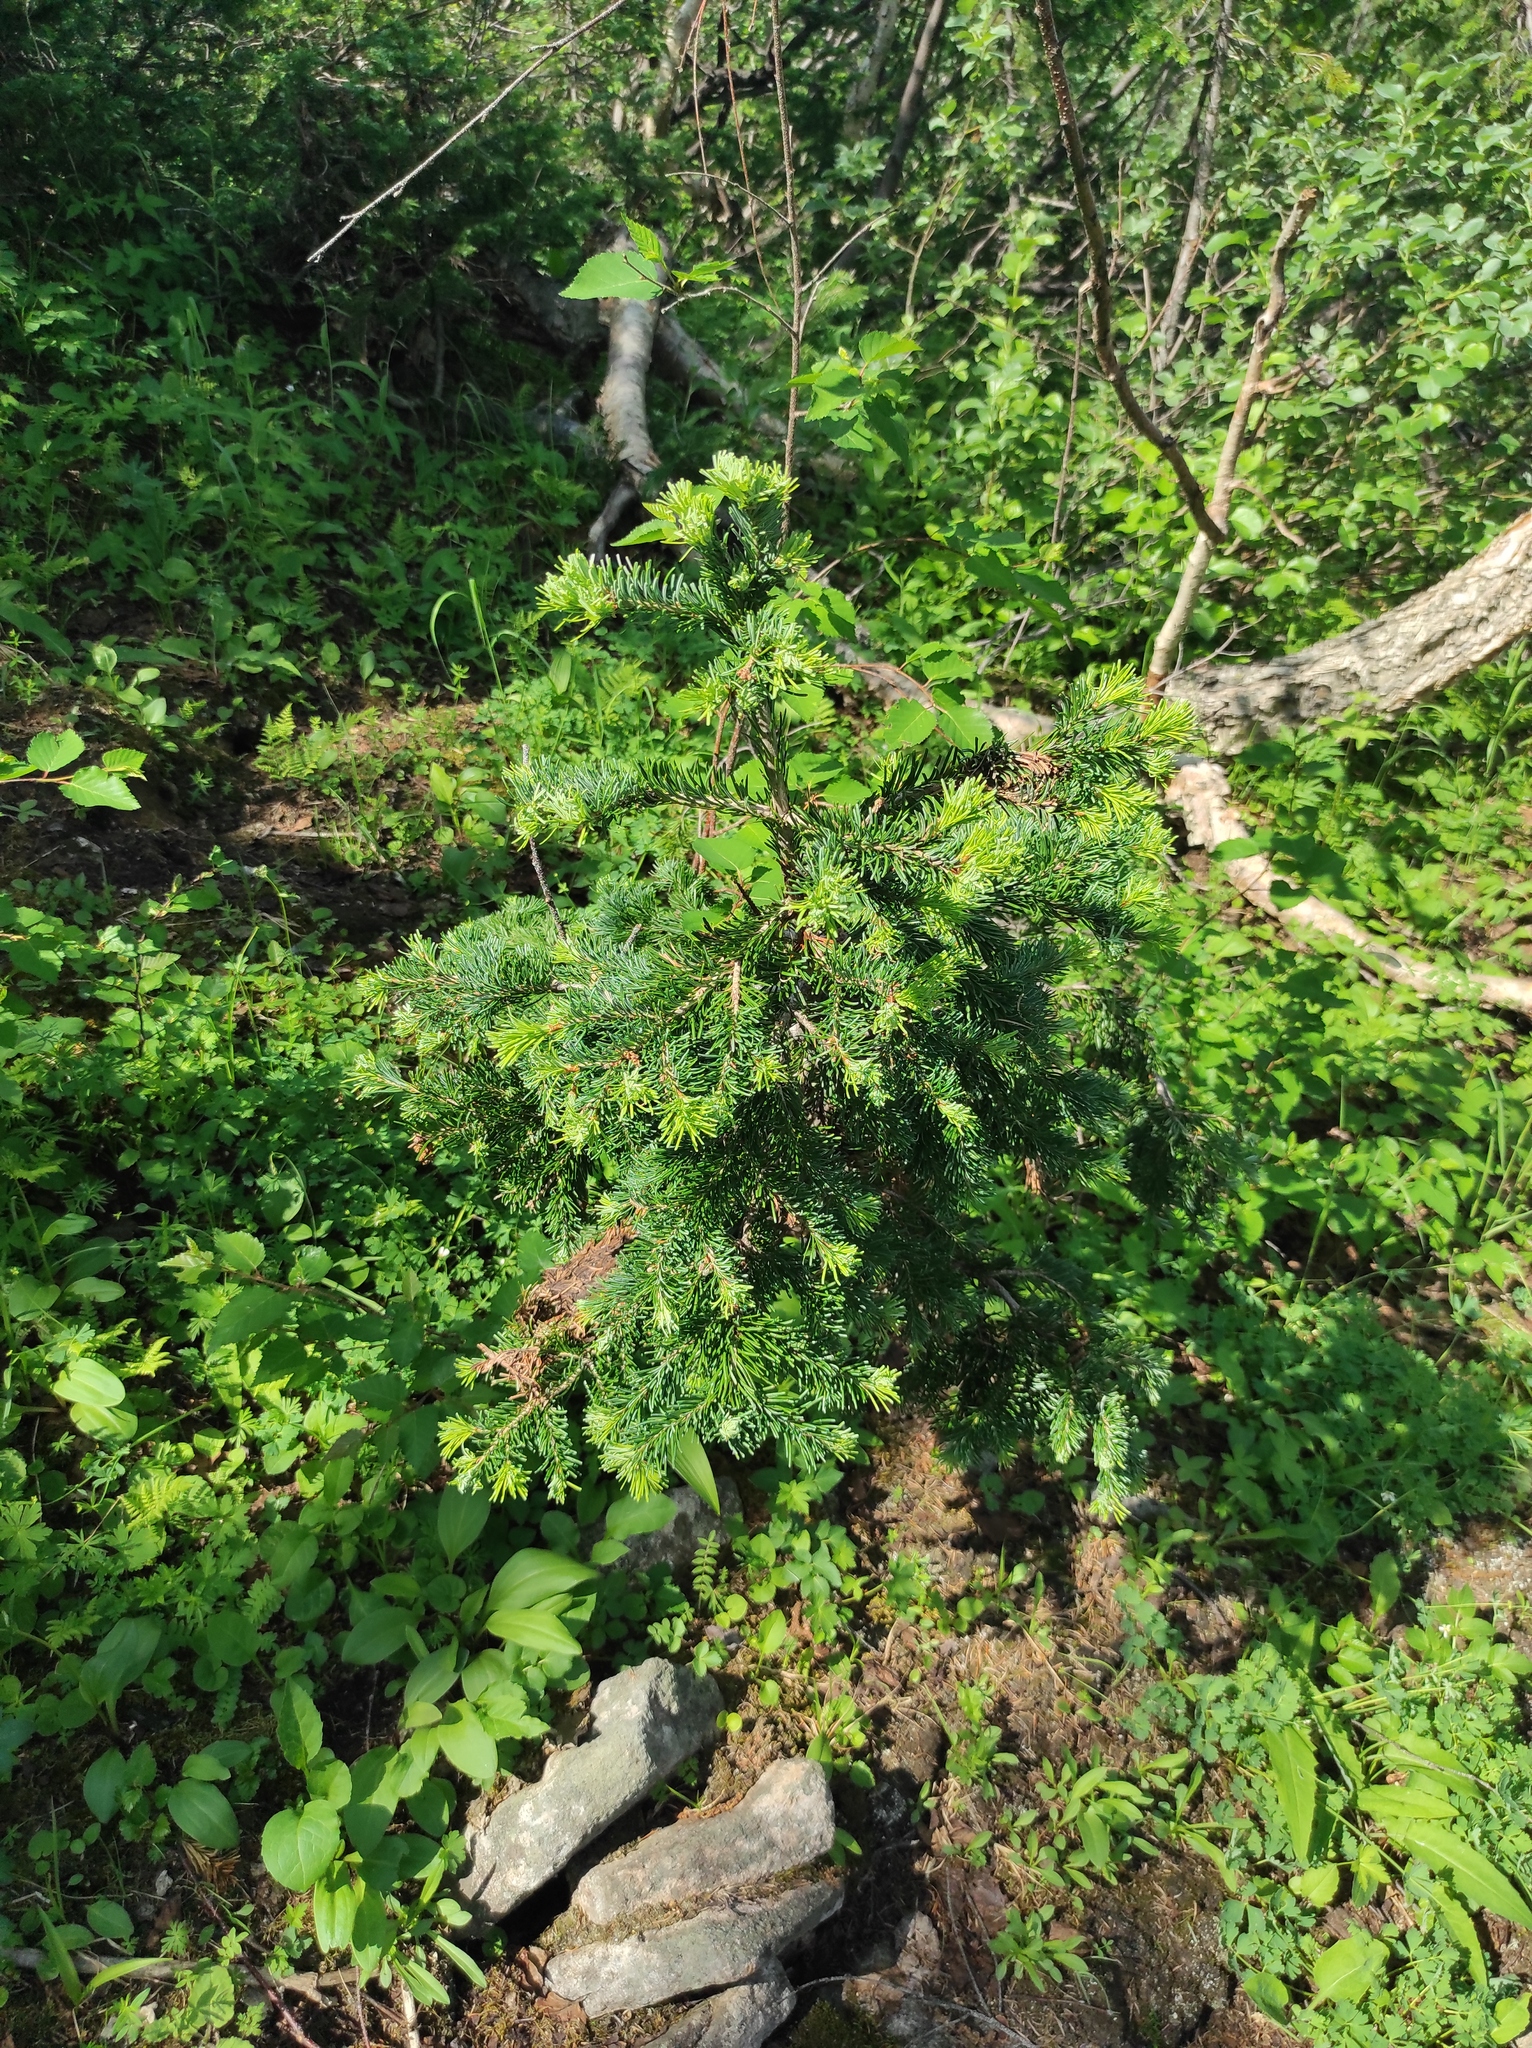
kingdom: Plantae
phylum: Tracheophyta
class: Pinopsida
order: Pinales
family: Pinaceae
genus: Abies
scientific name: Abies sibirica
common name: Siberian fir
